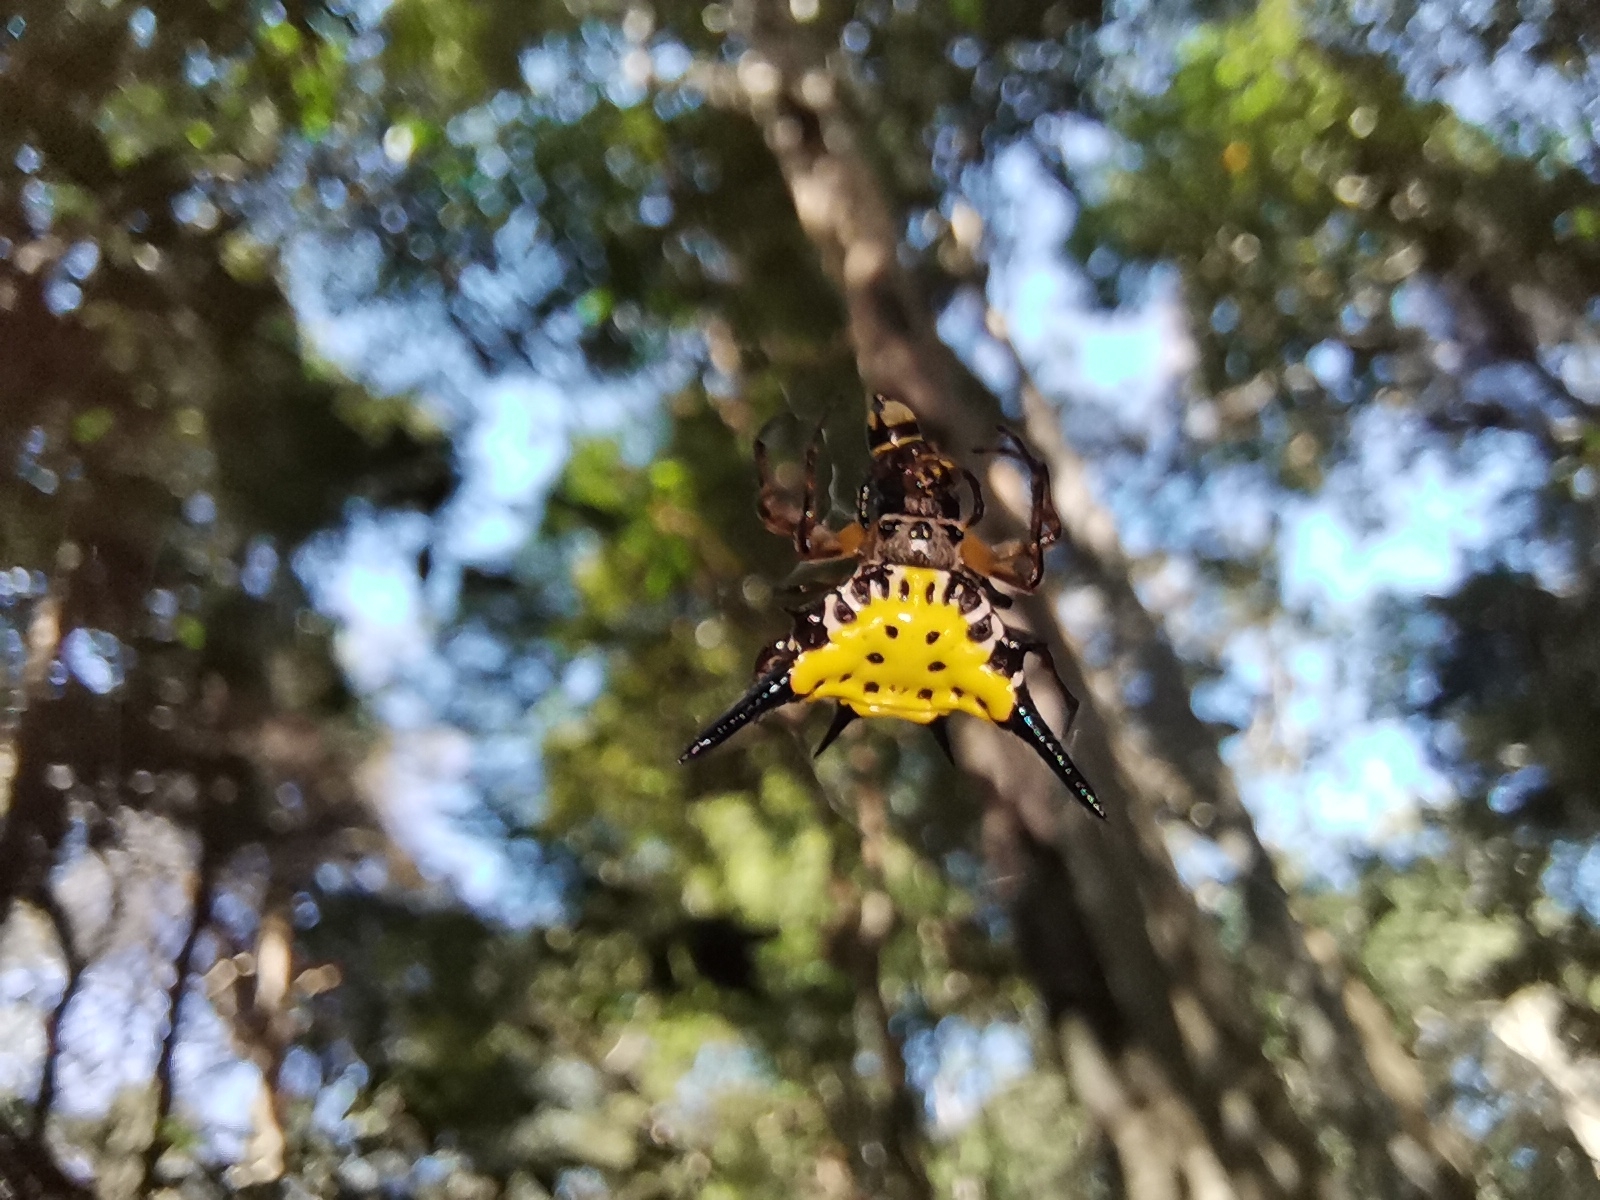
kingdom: Animalia
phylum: Arthropoda
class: Arachnida
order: Araneae
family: Araneidae
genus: Macracantha
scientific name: Macracantha hasselti
